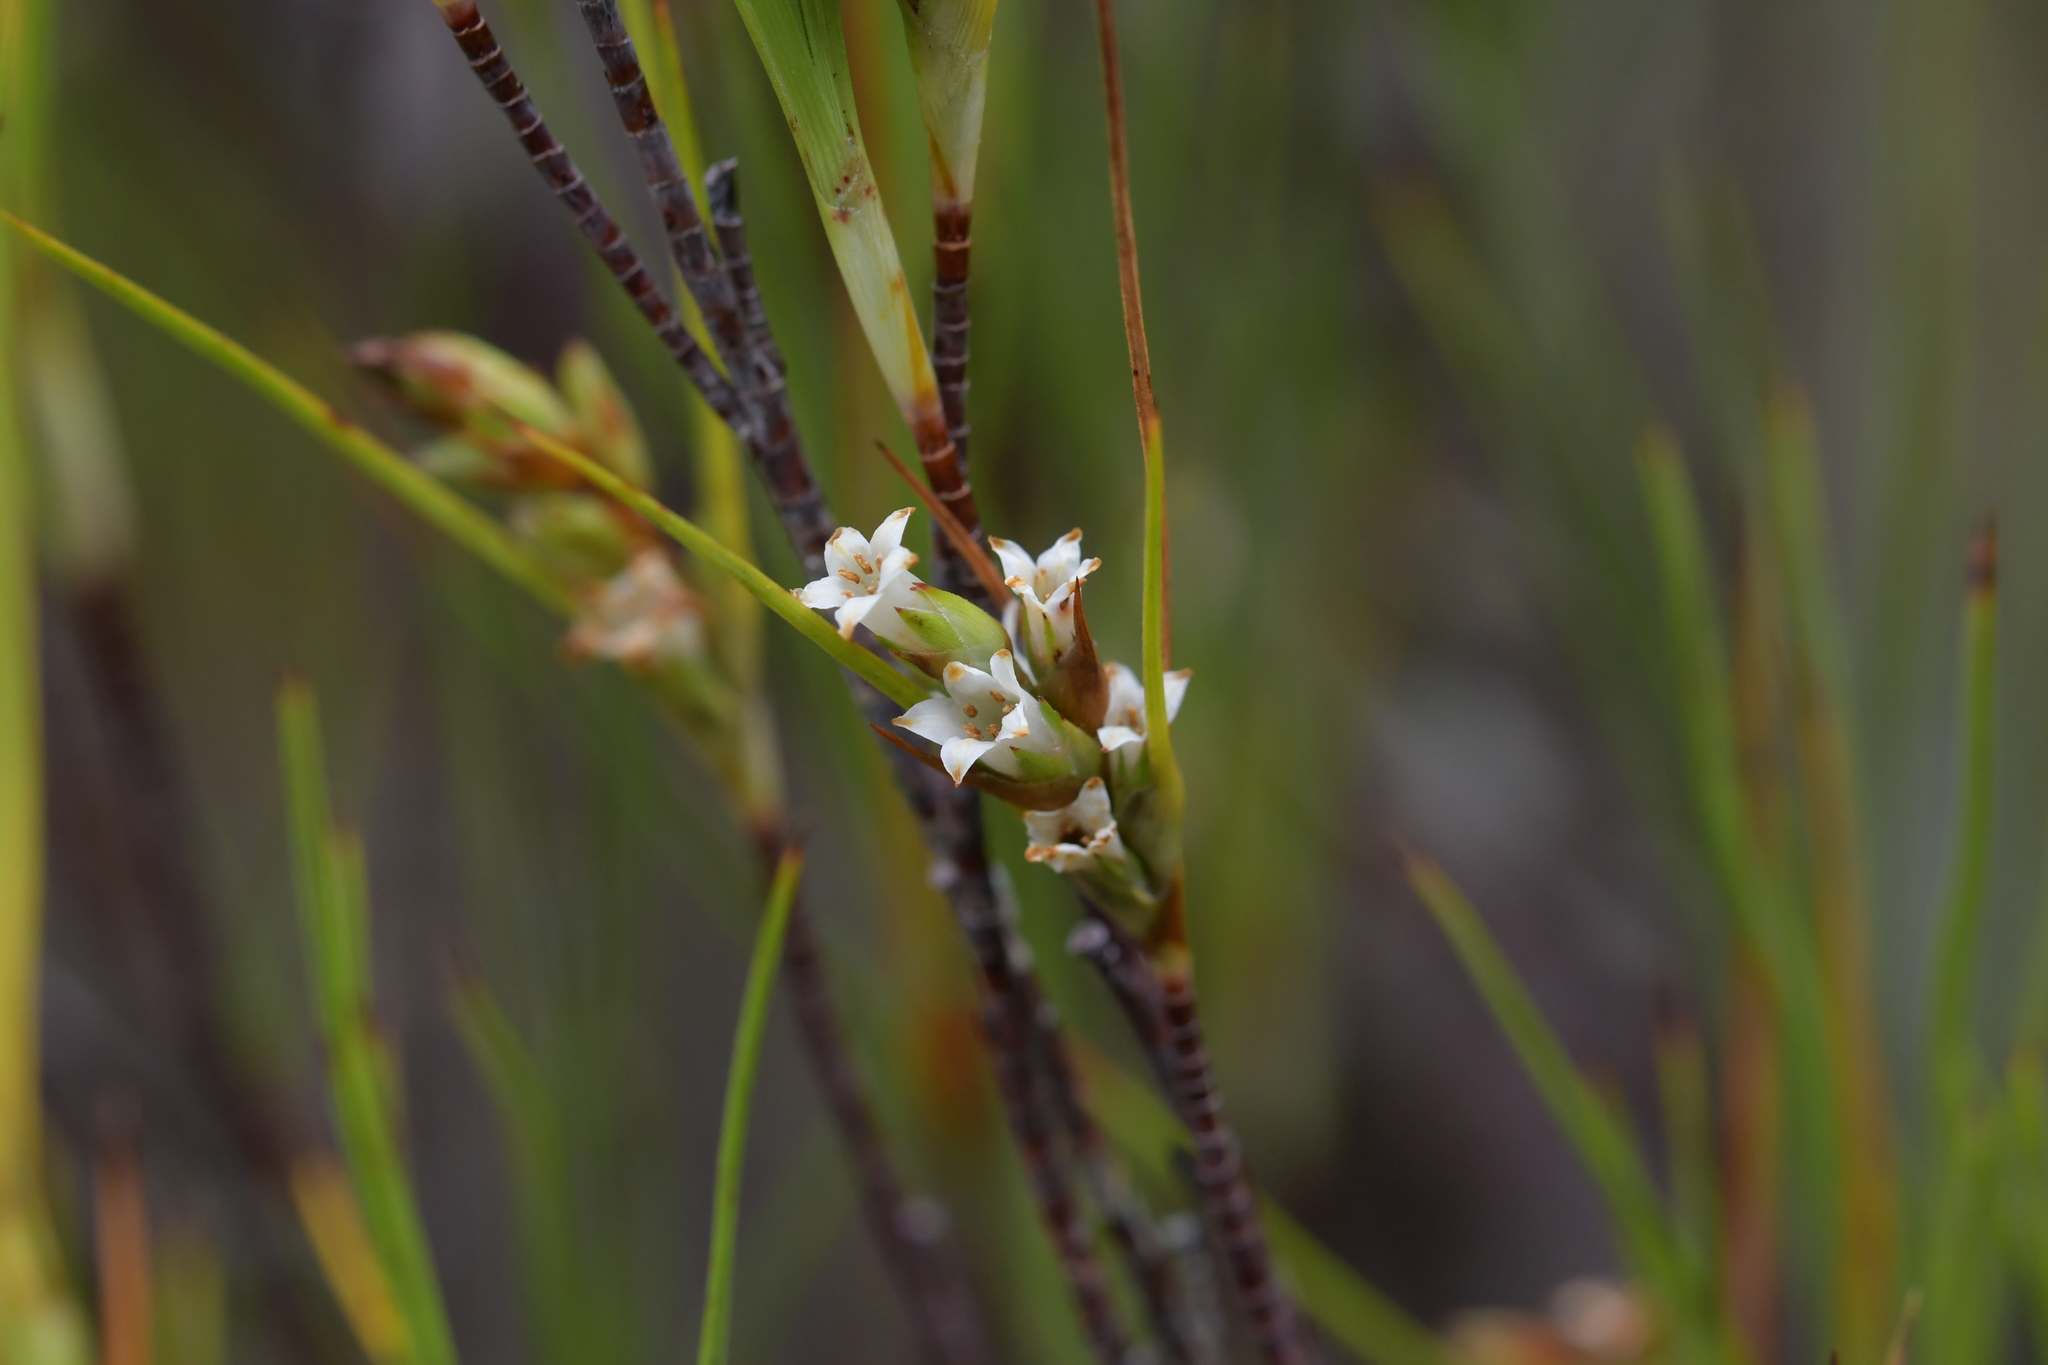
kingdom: Plantae
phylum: Tracheophyta
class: Magnoliopsida
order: Ericales
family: Ericaceae
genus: Dracophyllum
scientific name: Dracophyllum filifolium
